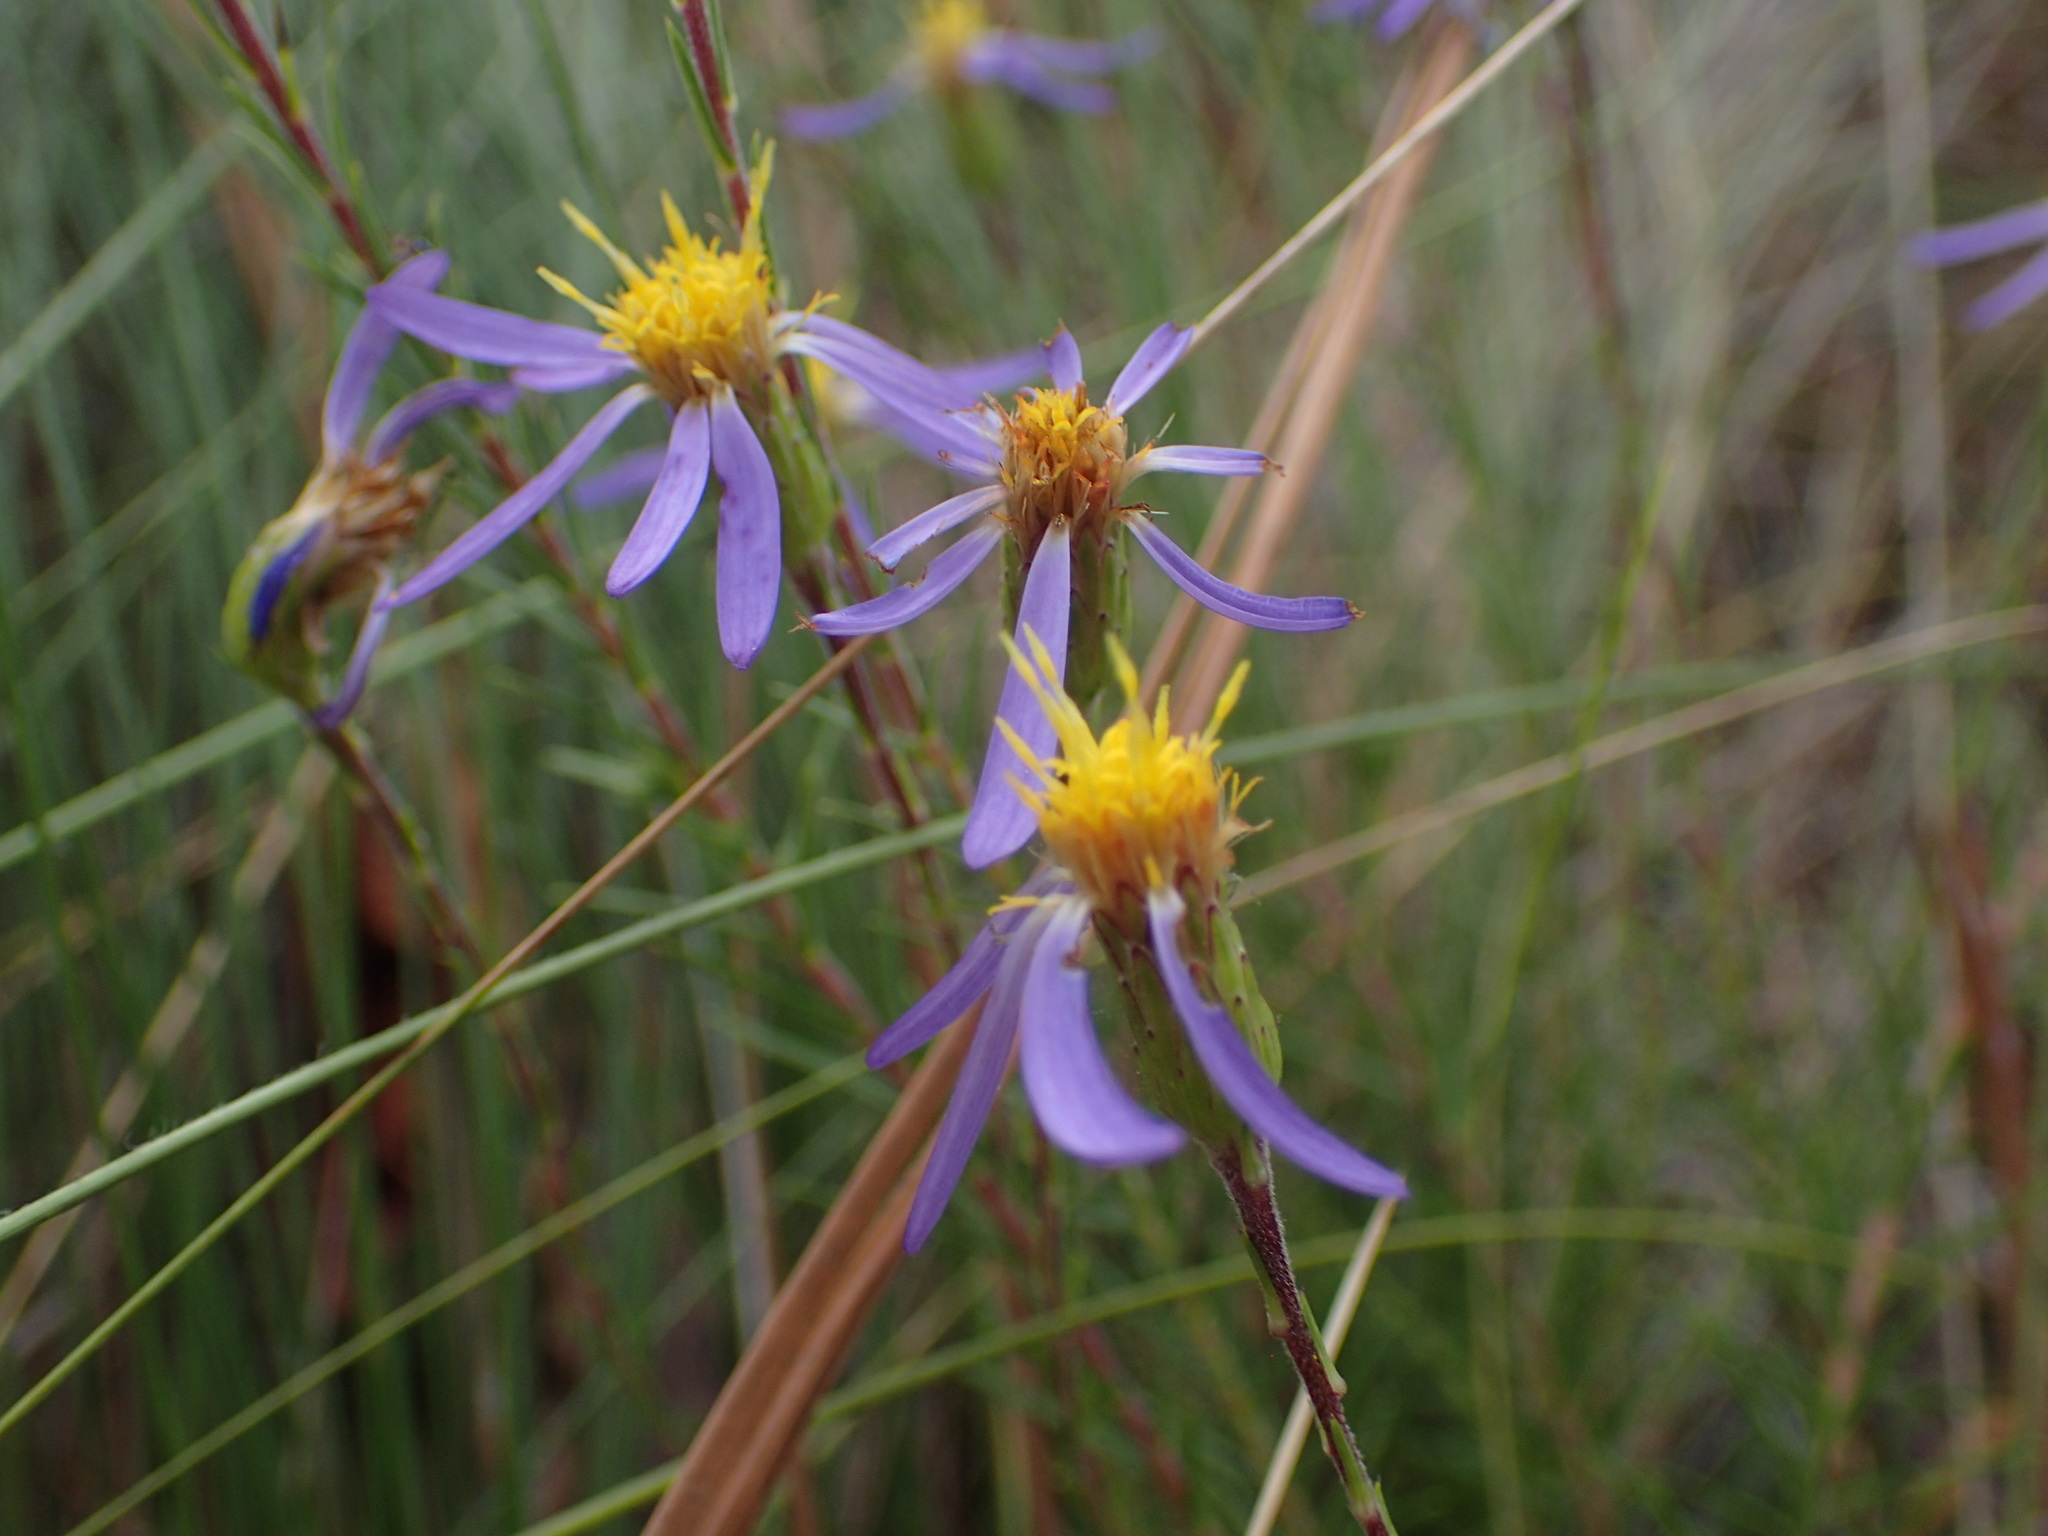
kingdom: Plantae
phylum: Tracheophyta
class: Magnoliopsida
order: Asterales
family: Asteraceae
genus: Ionactis
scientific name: Ionactis linariifolia
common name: Flax-leaf aster
